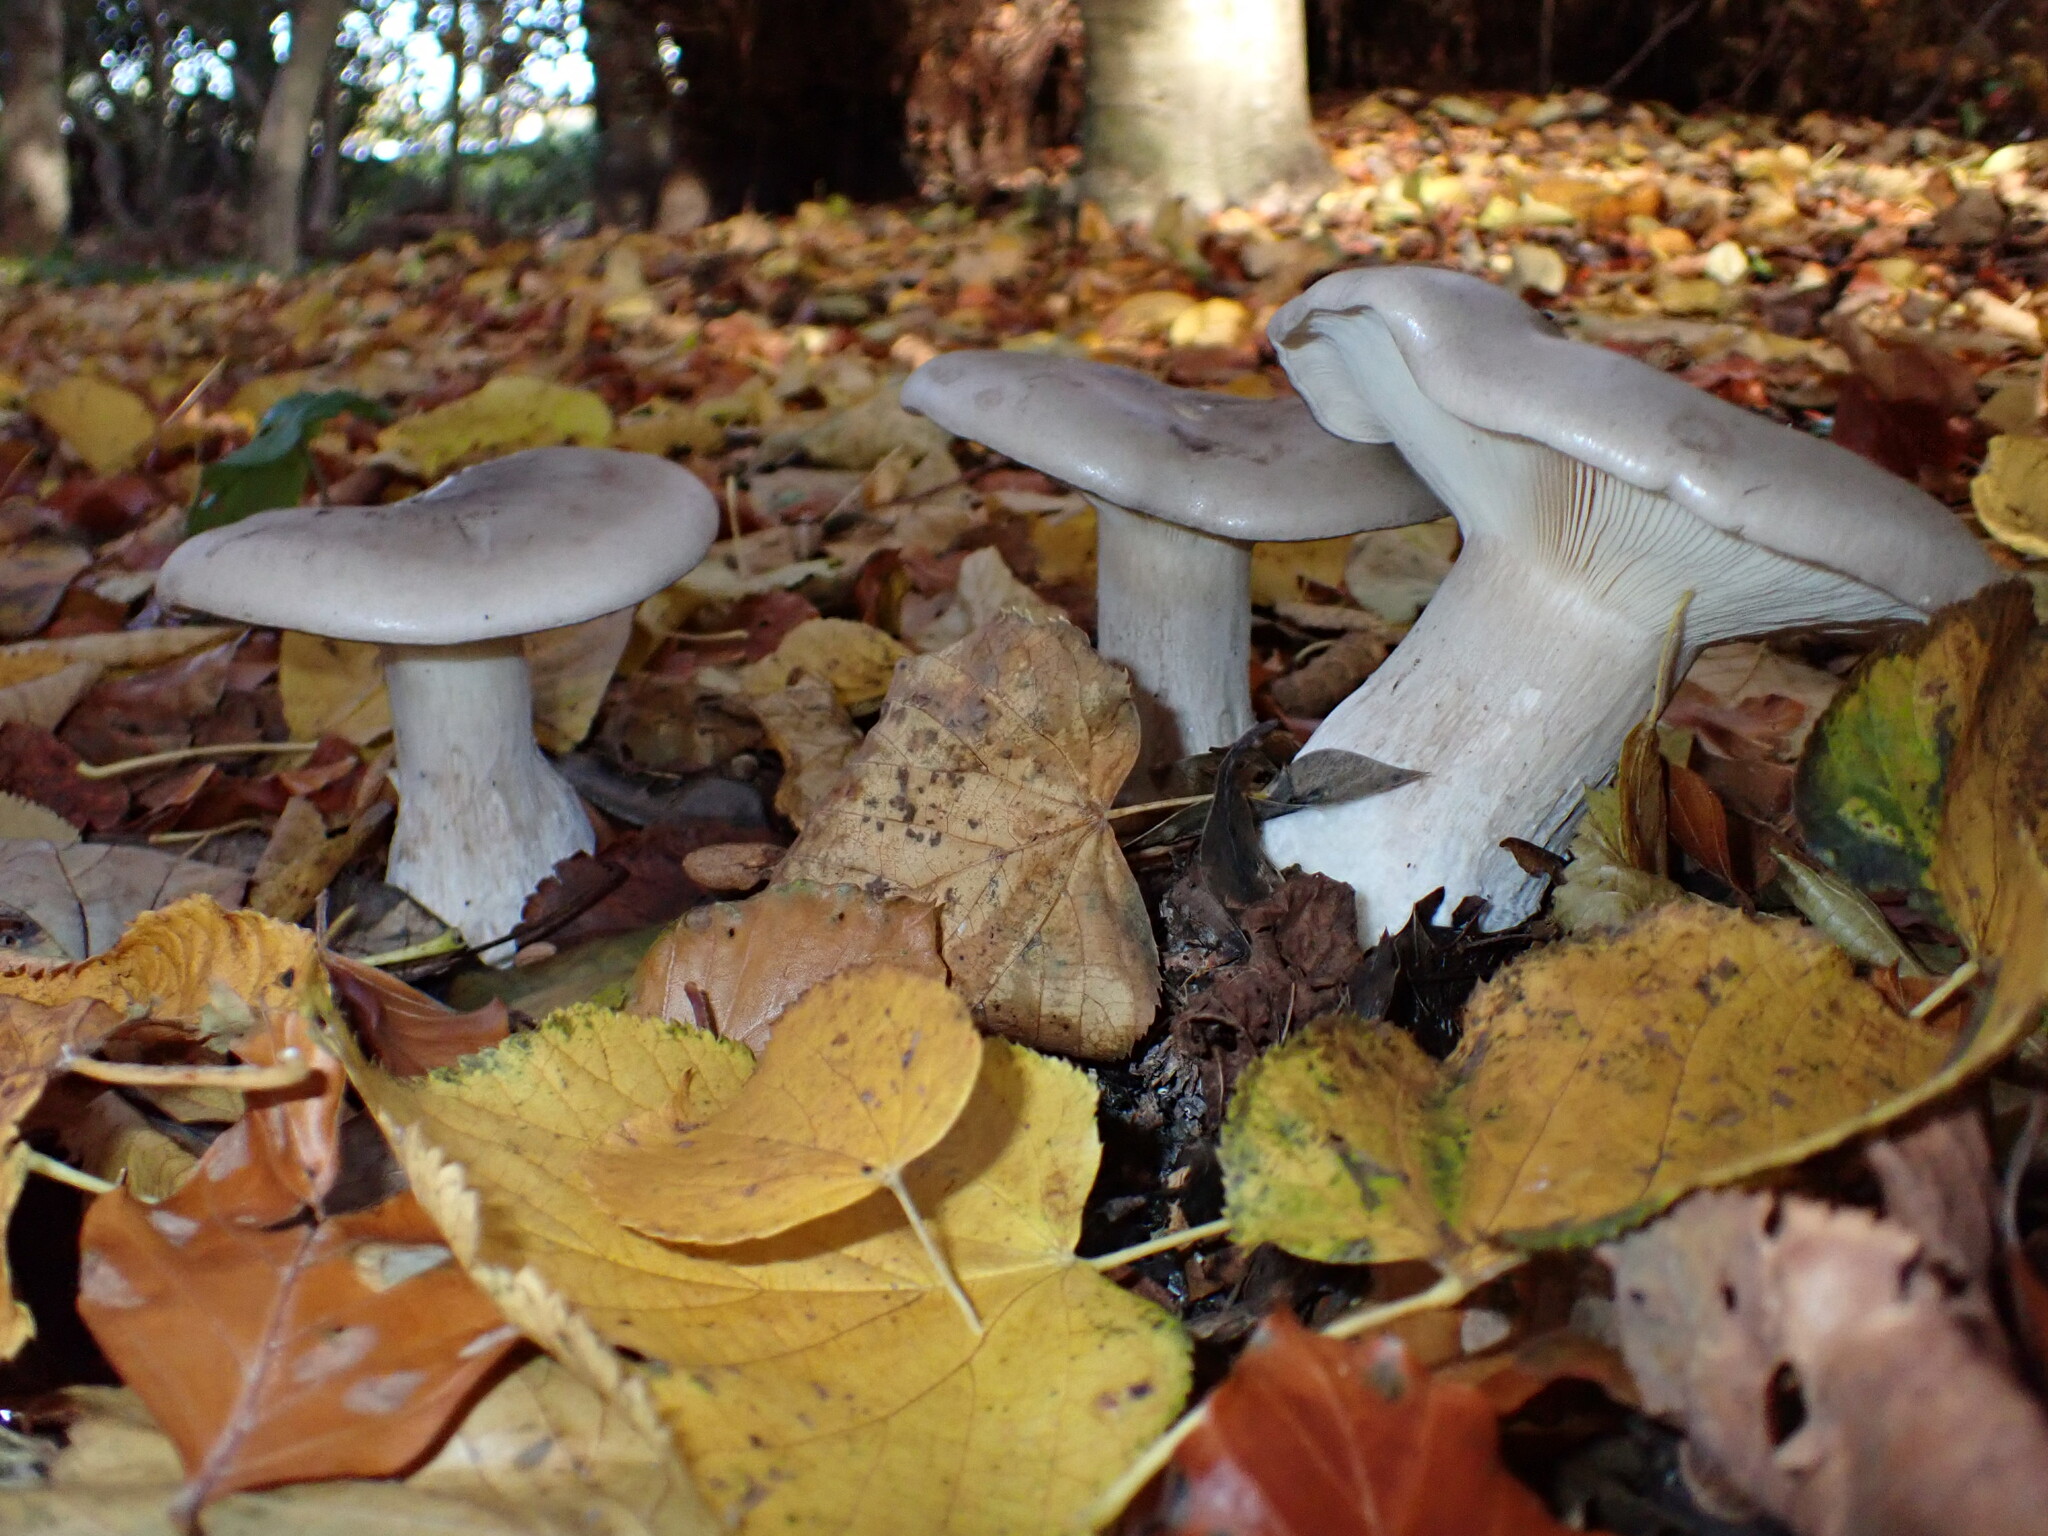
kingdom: Fungi
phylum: Basidiomycota
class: Agaricomycetes
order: Agaricales
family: Tricholomataceae
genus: Clitocybe
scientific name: Clitocybe nebularis
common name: Clouded agaric
